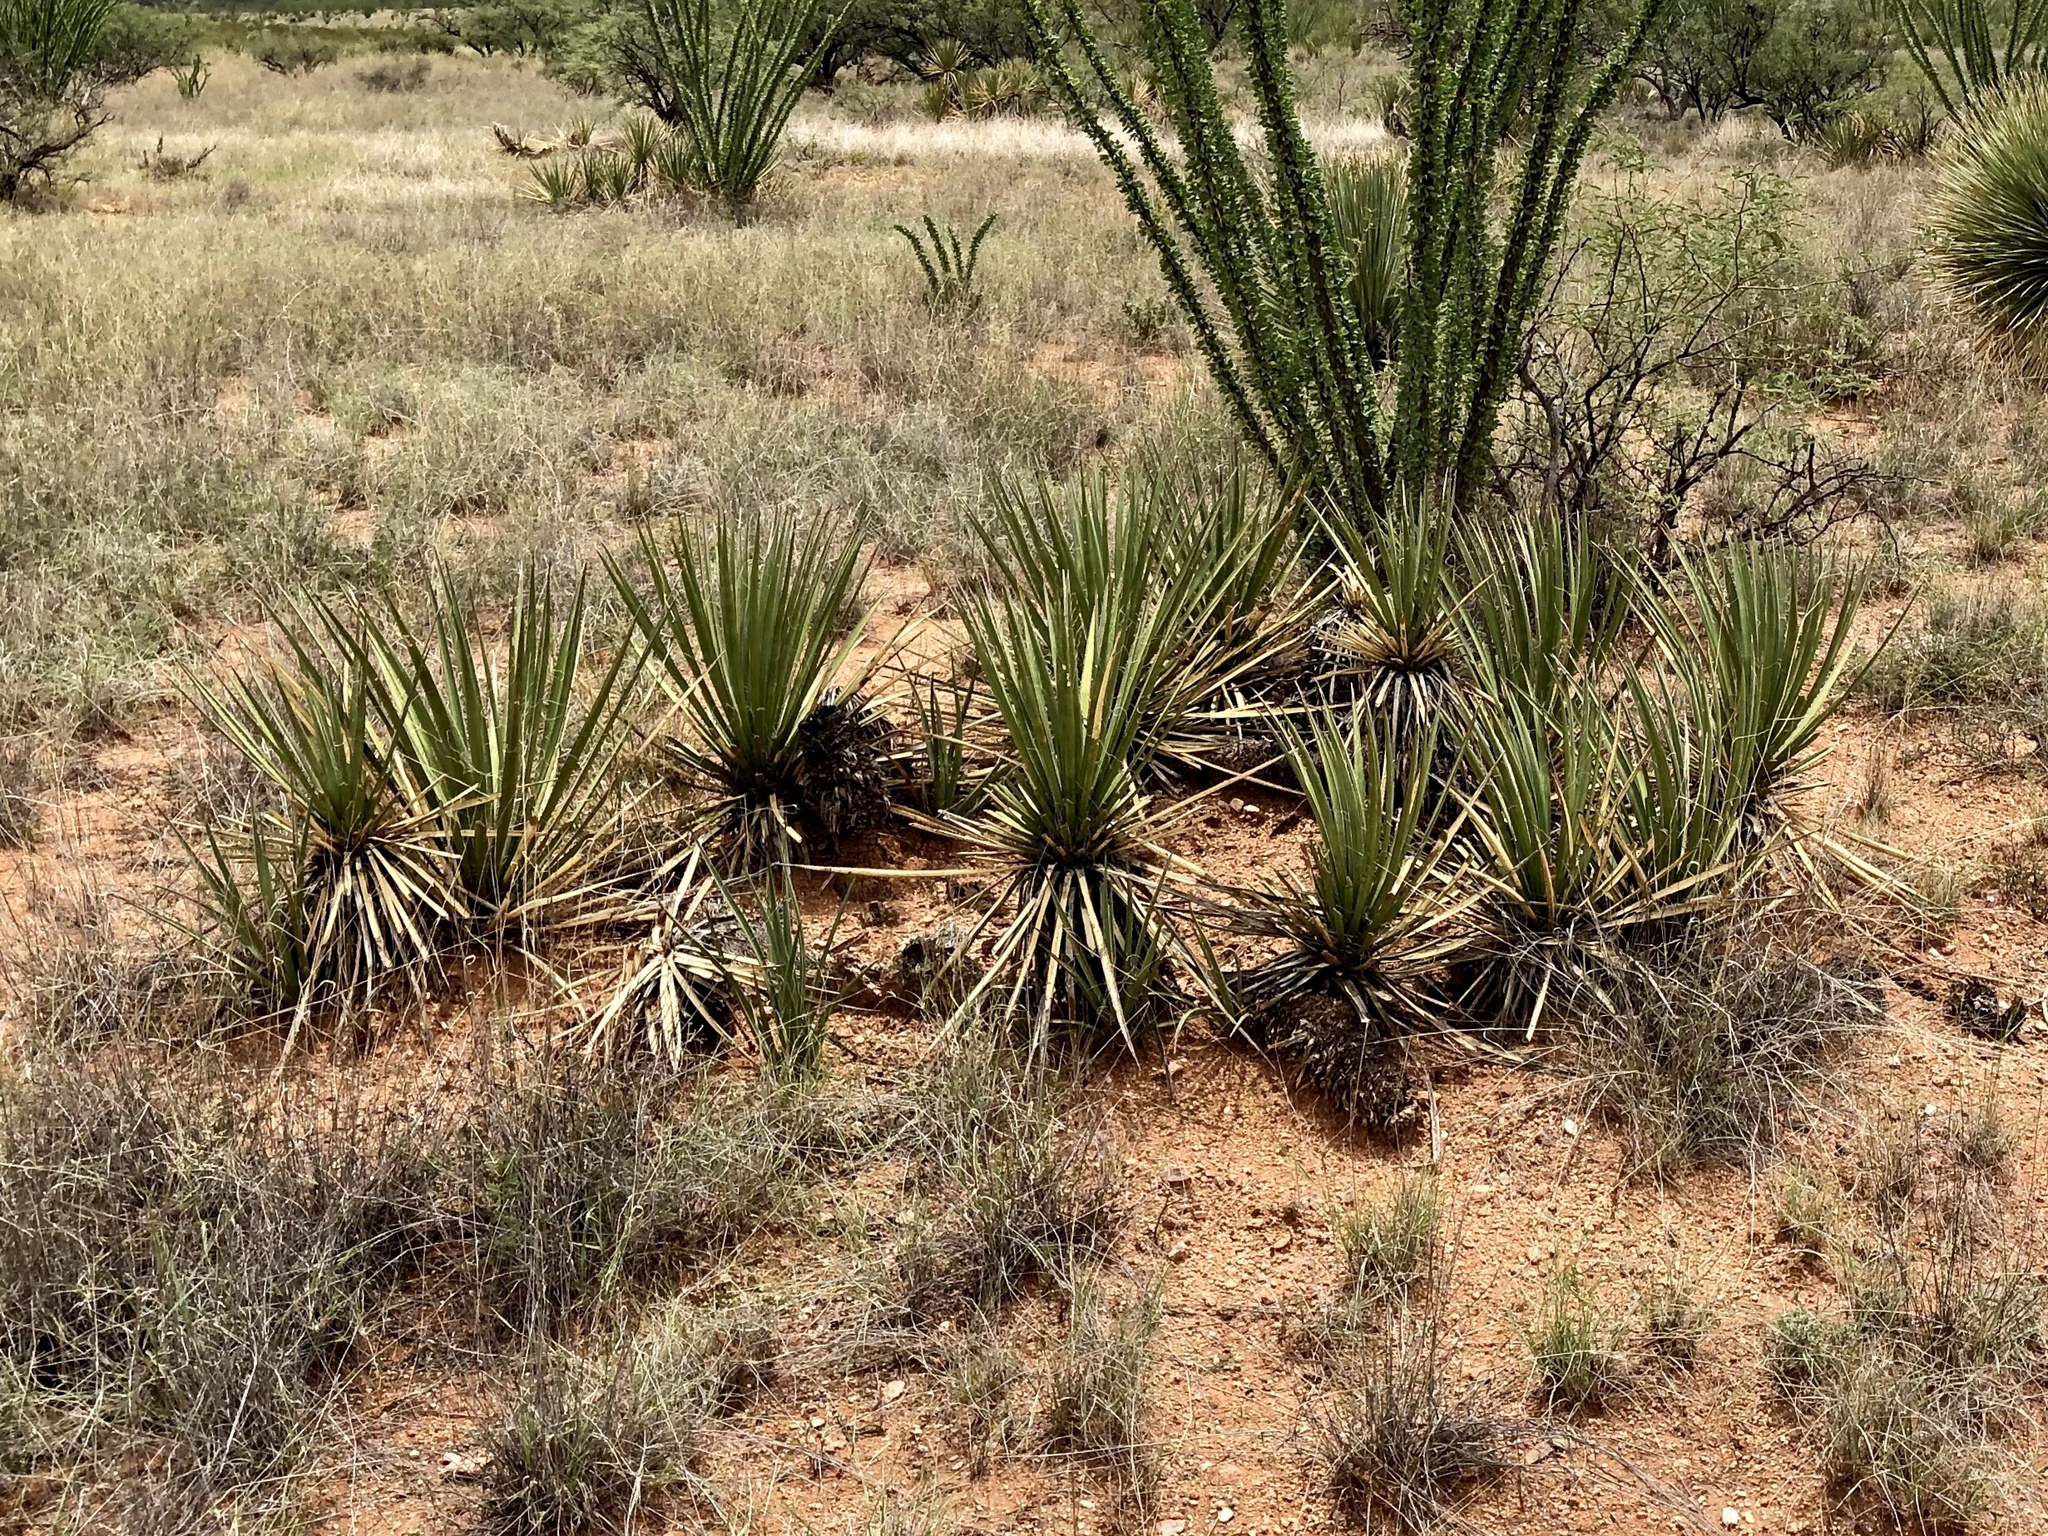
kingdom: Plantae
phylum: Tracheophyta
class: Liliopsida
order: Asparagales
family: Asparagaceae
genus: Yucca
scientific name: Yucca baccata
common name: Banana yucca
